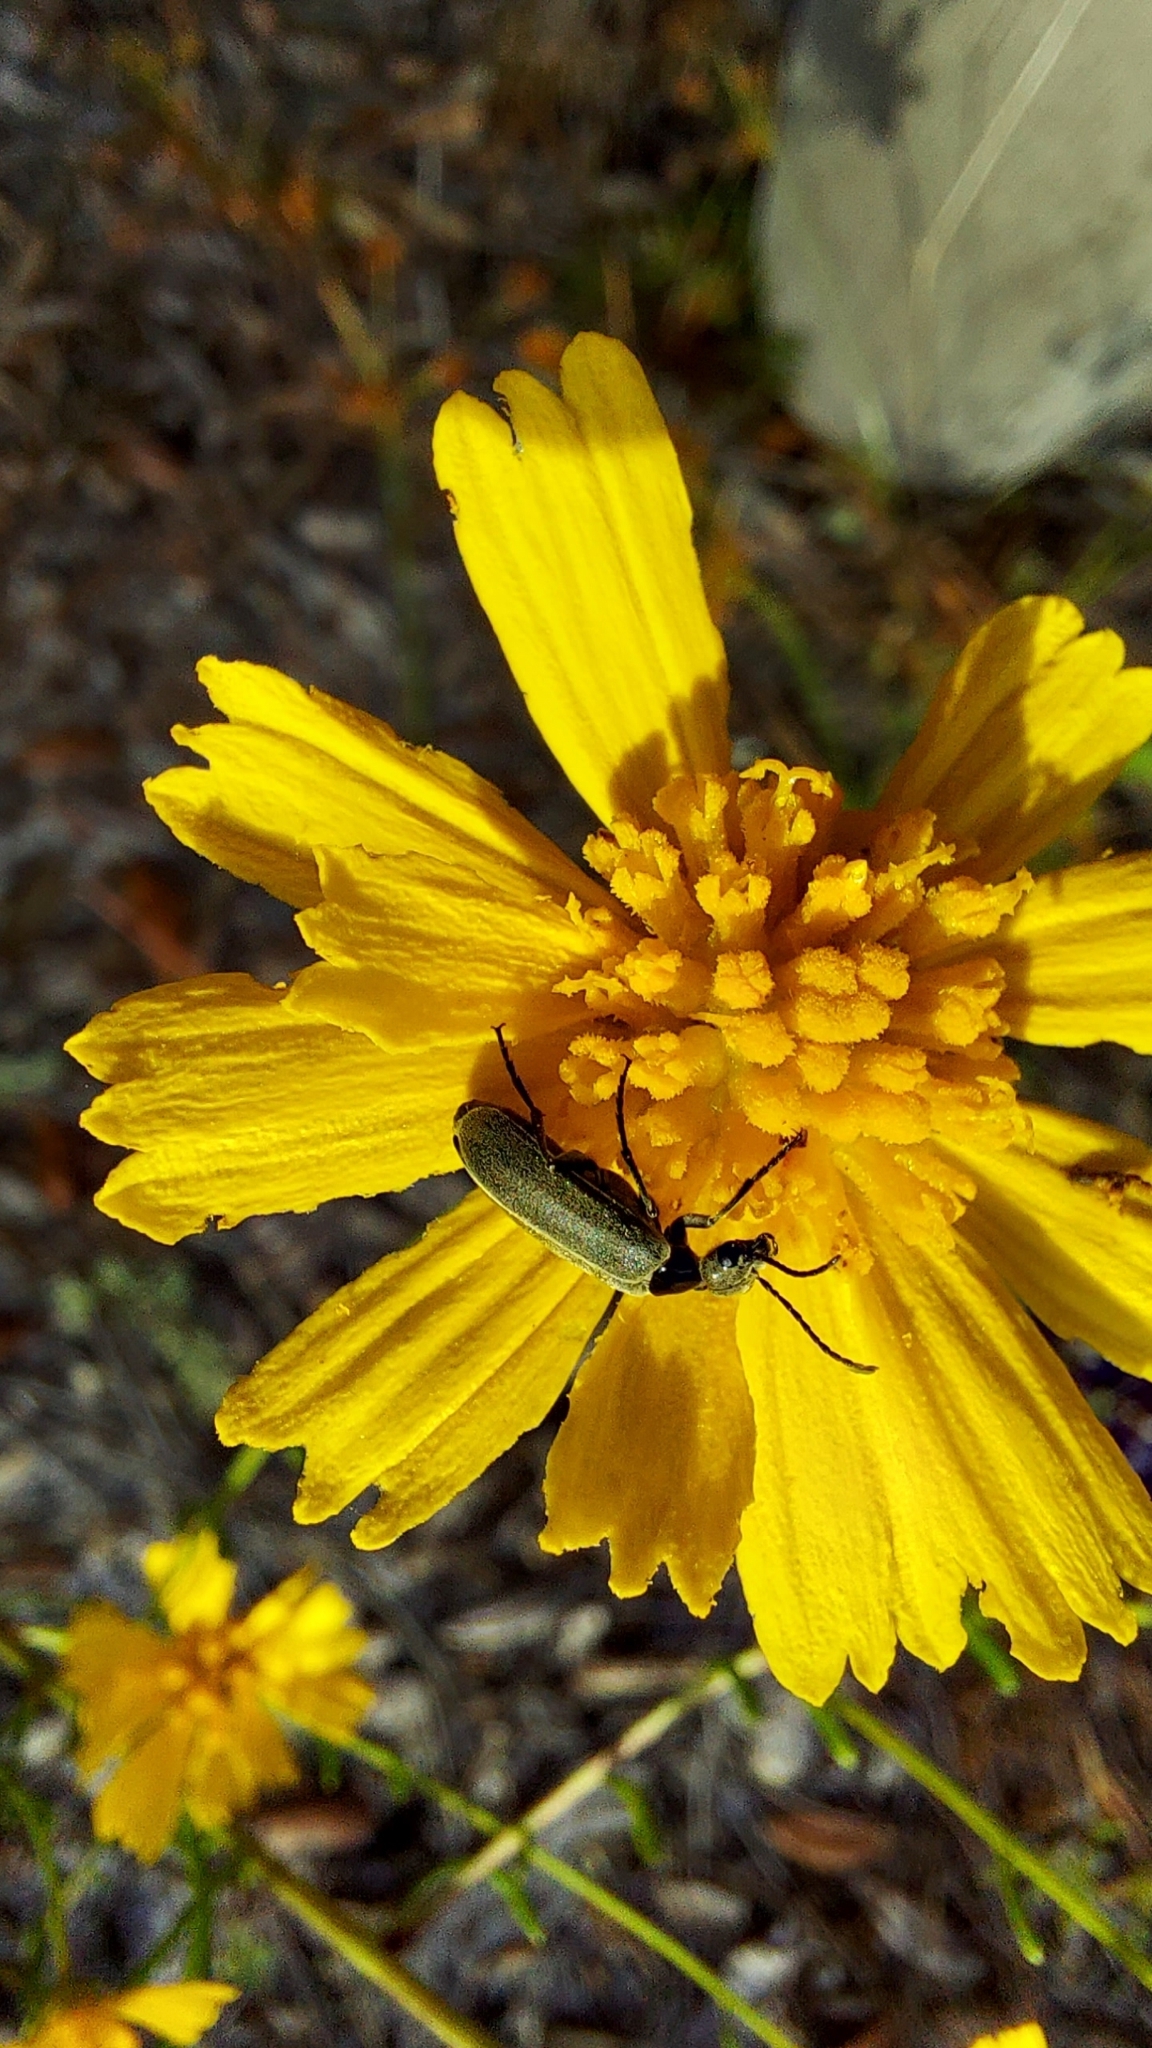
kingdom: Animalia
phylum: Arthropoda
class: Insecta
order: Coleoptera
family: Meloidae
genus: Epicauta
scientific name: Epicauta heterodera
